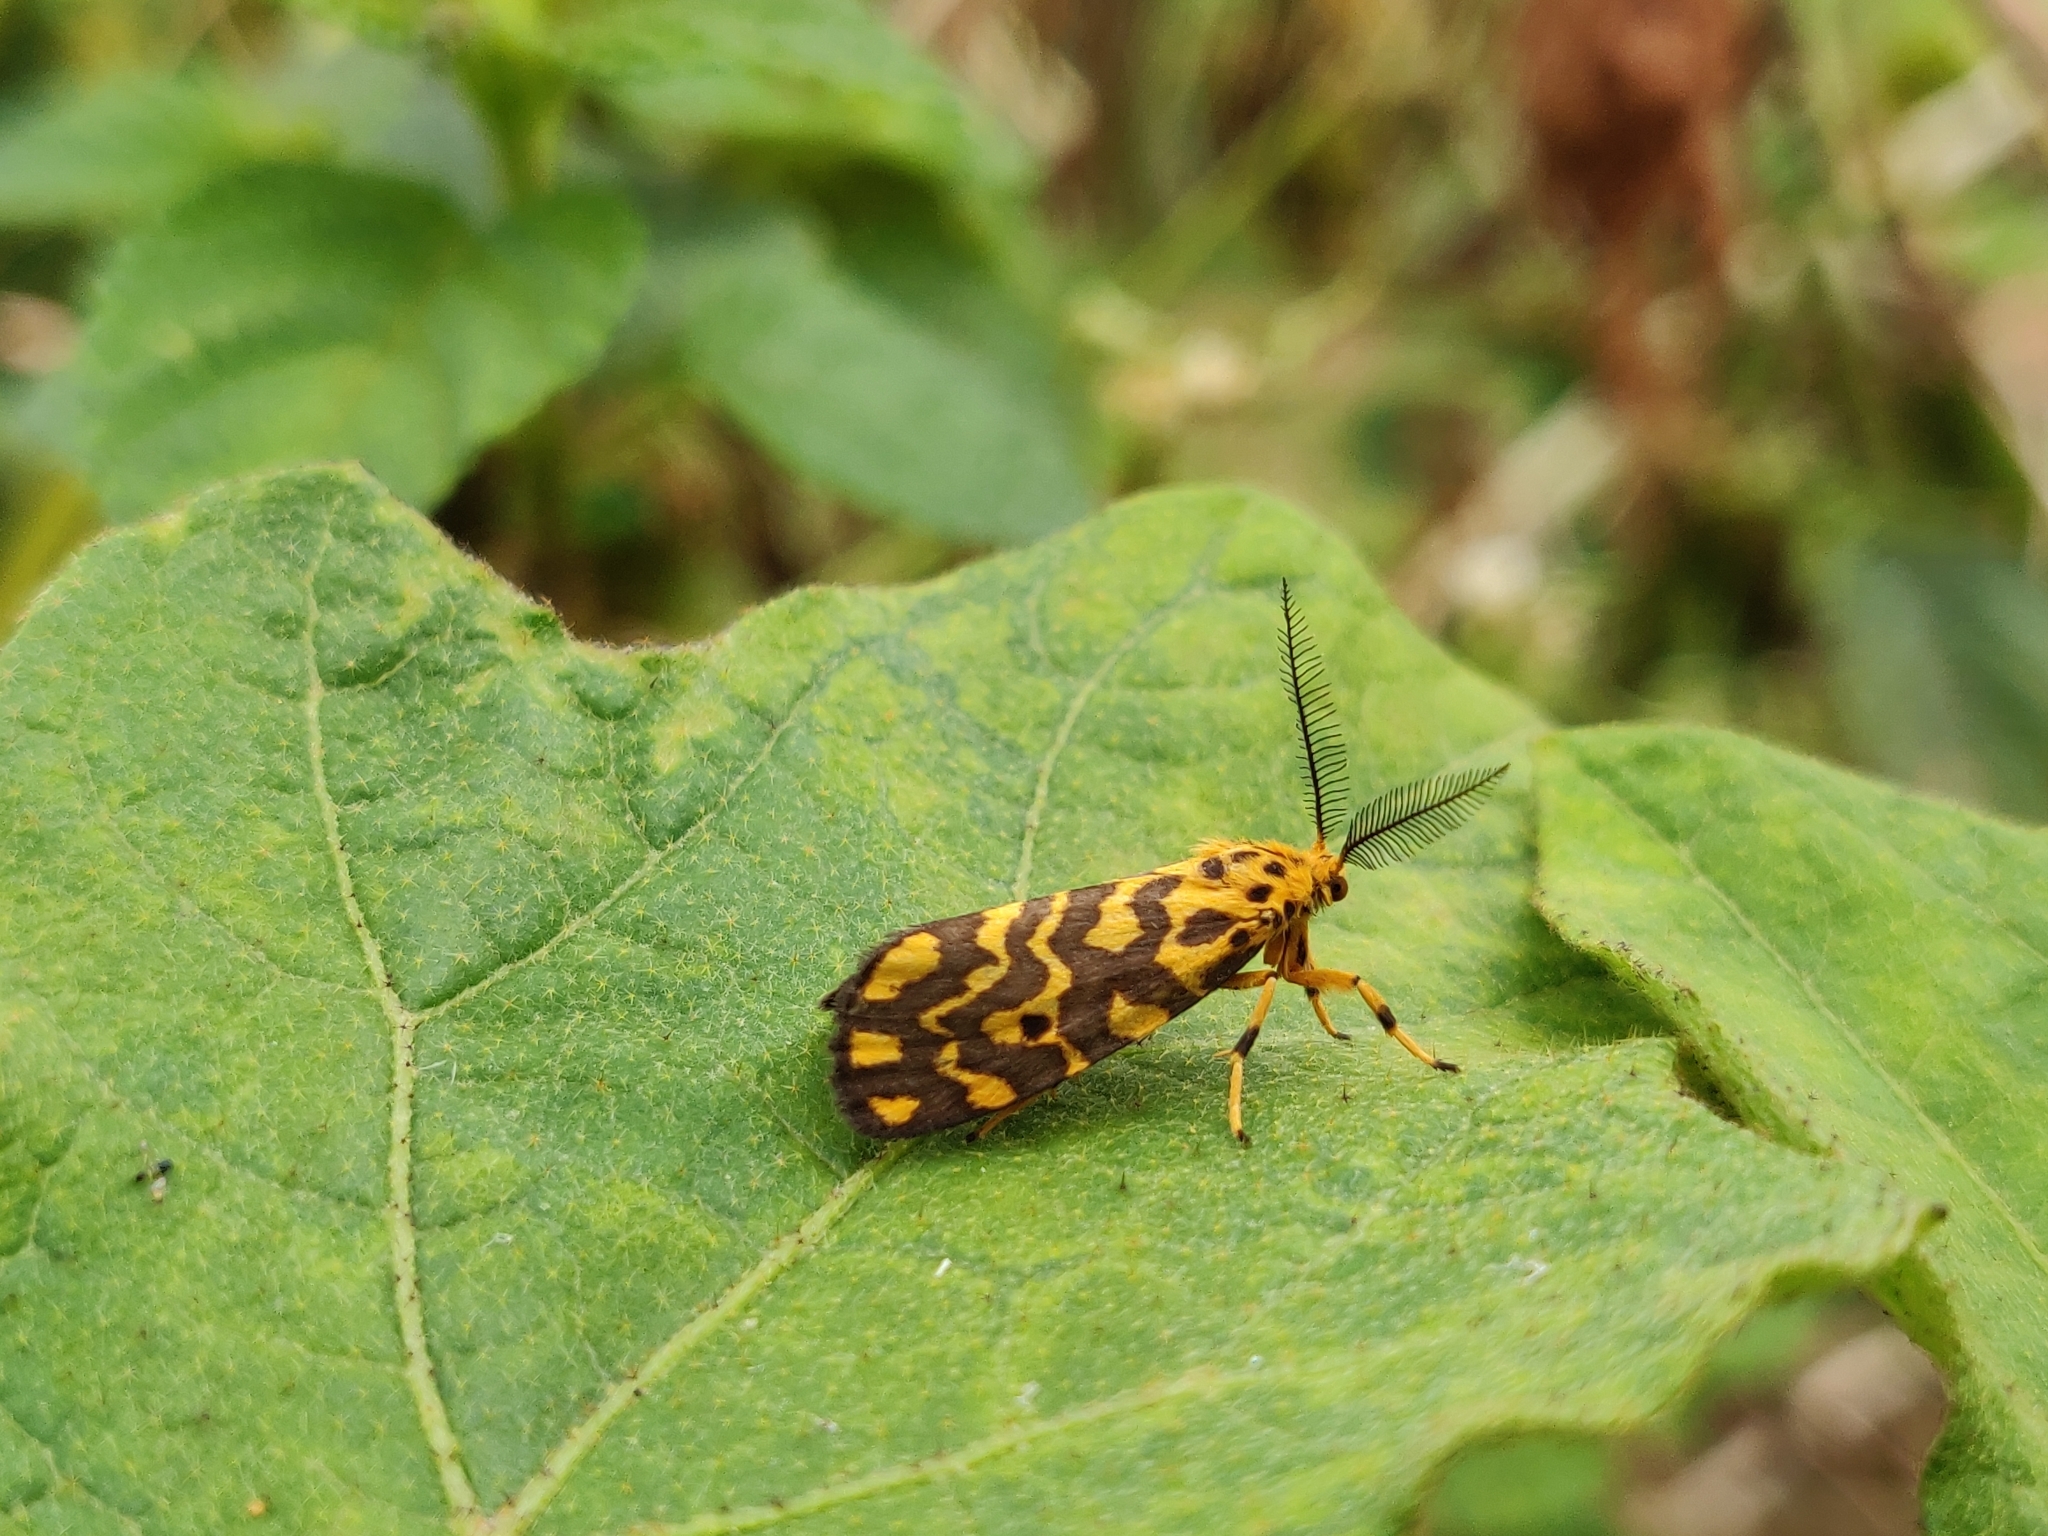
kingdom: Animalia
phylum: Arthropoda
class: Insecta
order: Lepidoptera
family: Erebidae
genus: Nepita
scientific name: Nepita conferta
